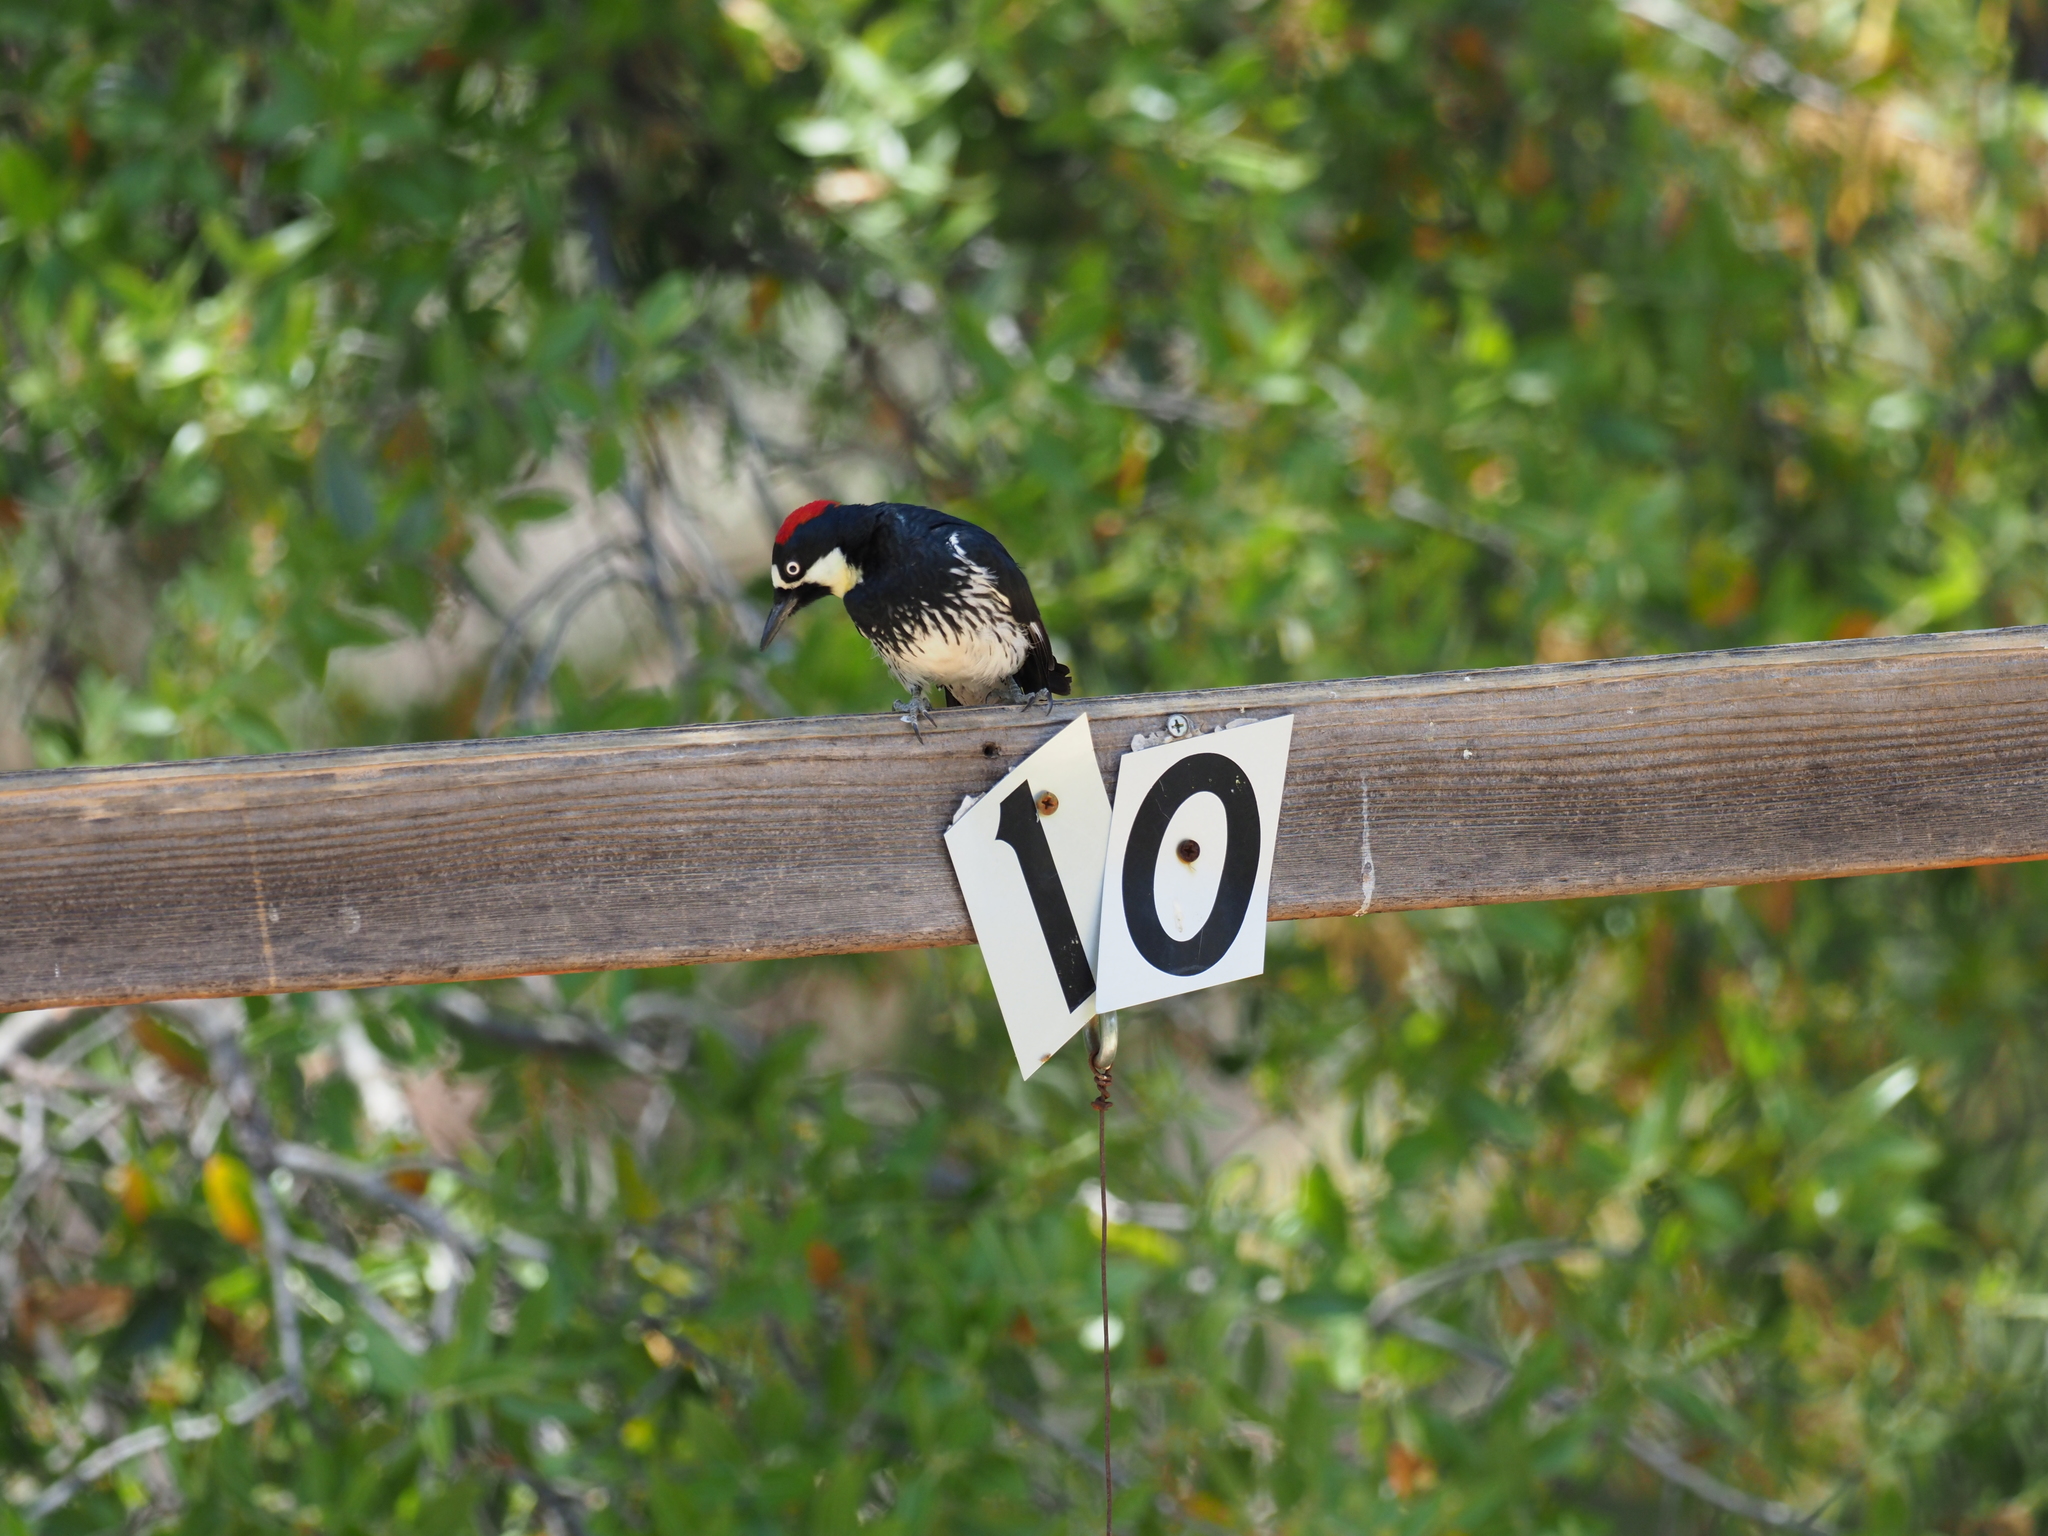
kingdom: Animalia
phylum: Chordata
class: Aves
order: Piciformes
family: Picidae
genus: Melanerpes
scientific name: Melanerpes formicivorus
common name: Acorn woodpecker
